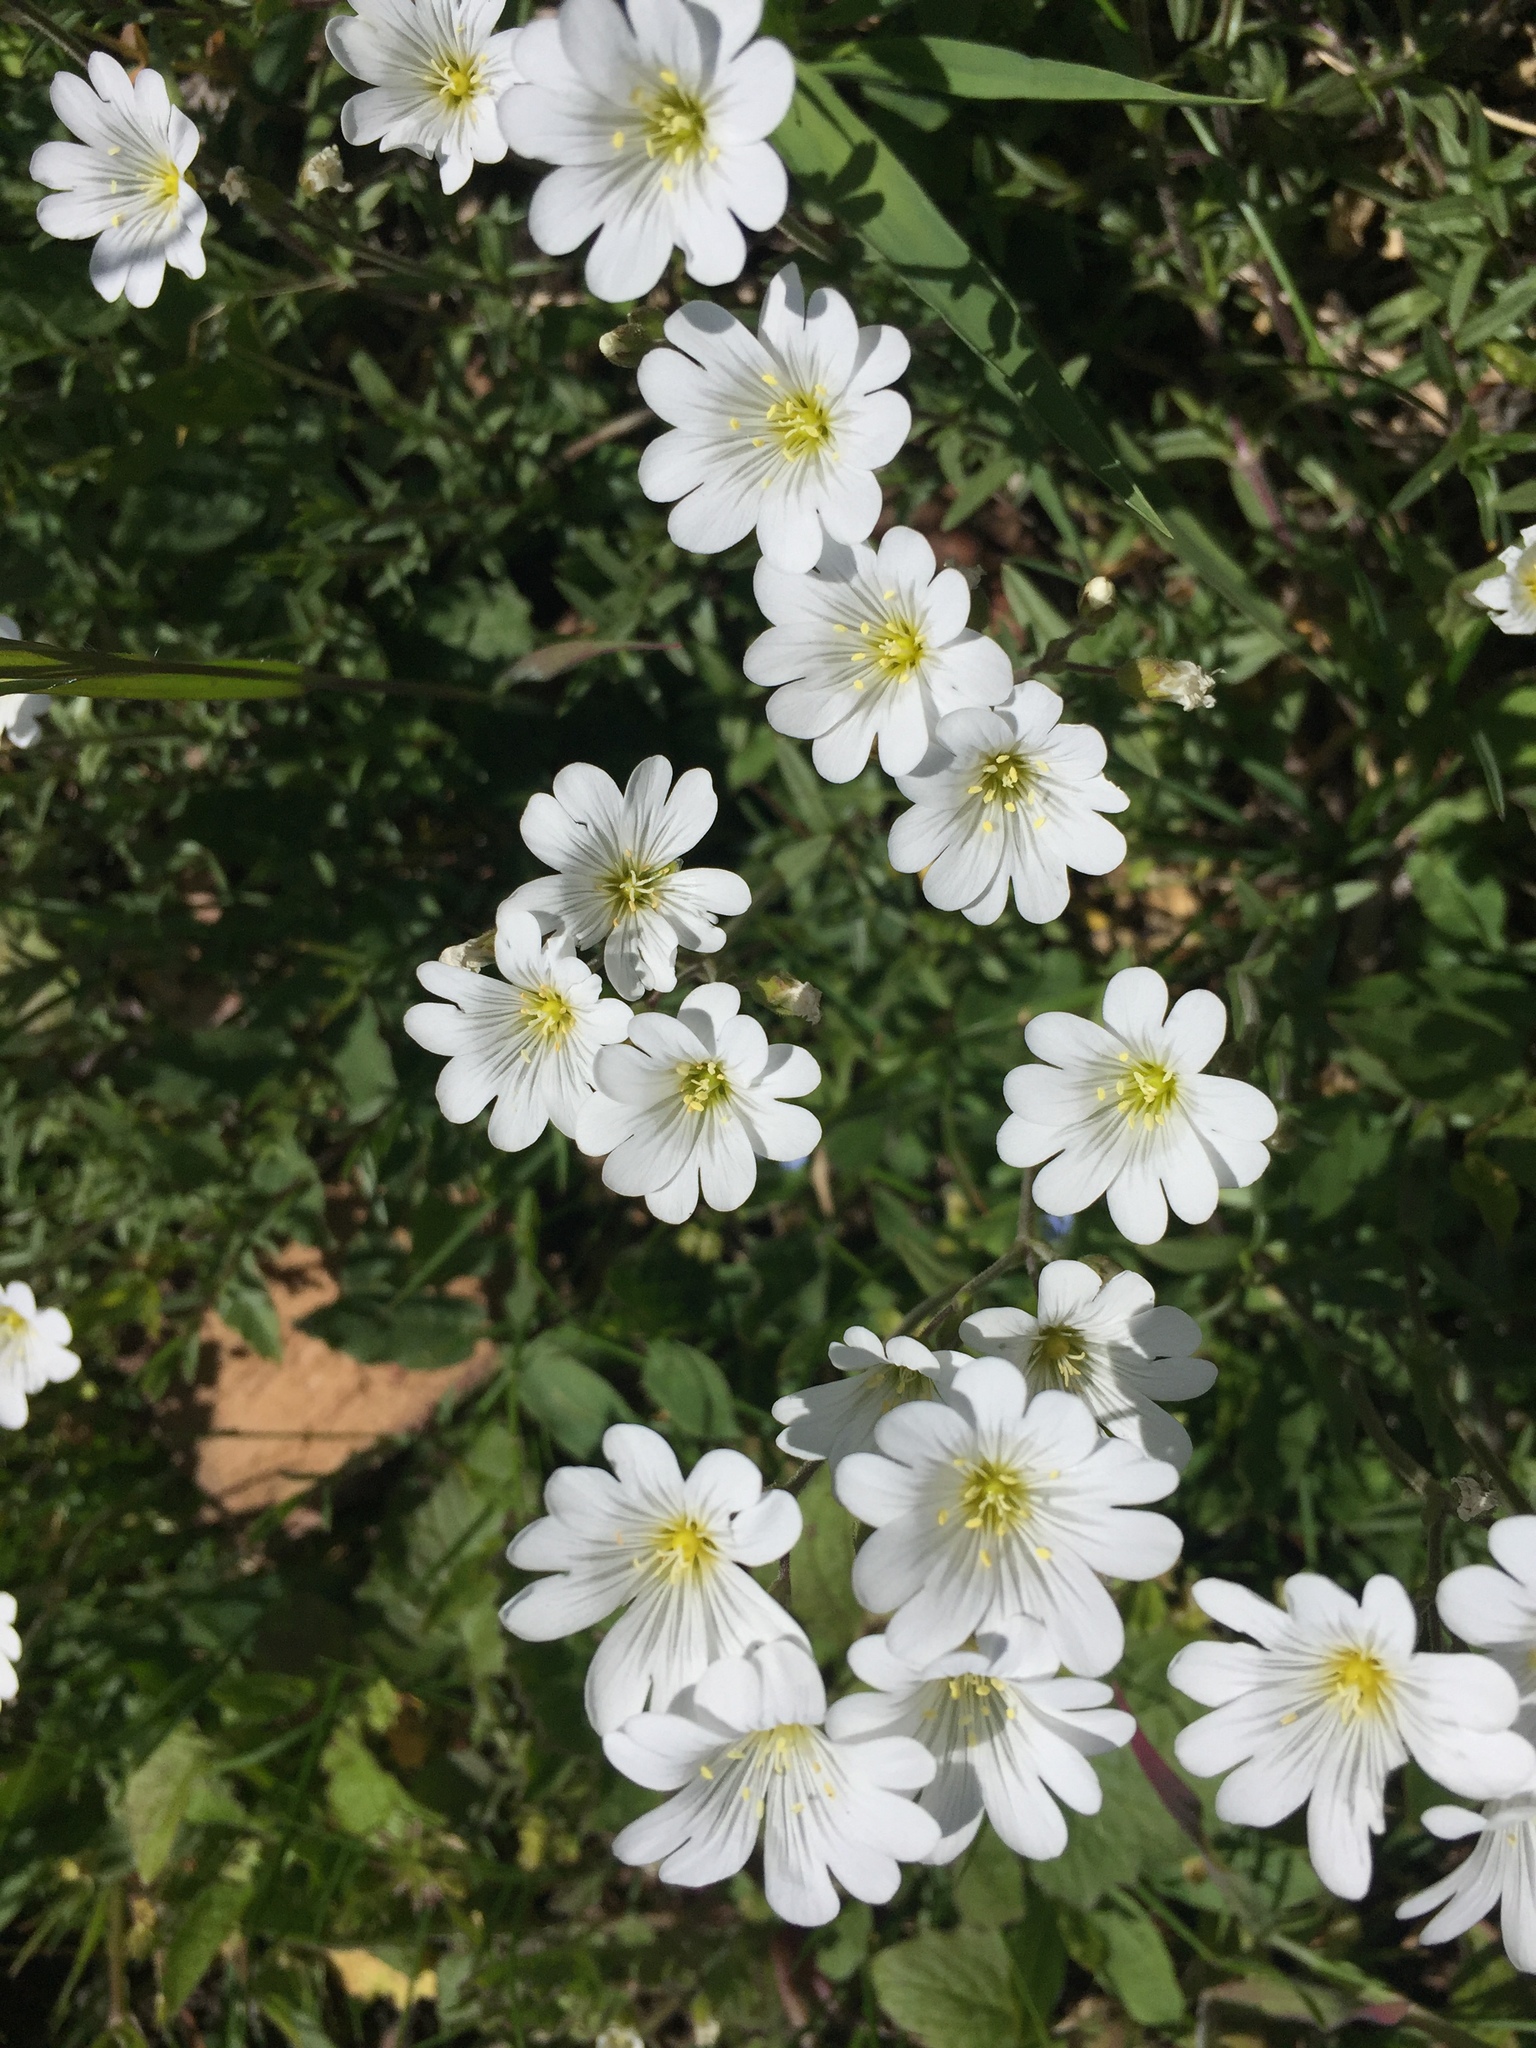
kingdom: Plantae
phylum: Tracheophyta
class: Magnoliopsida
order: Caryophyllales
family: Caryophyllaceae
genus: Cerastium
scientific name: Cerastium arvense
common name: Field mouse-ear
